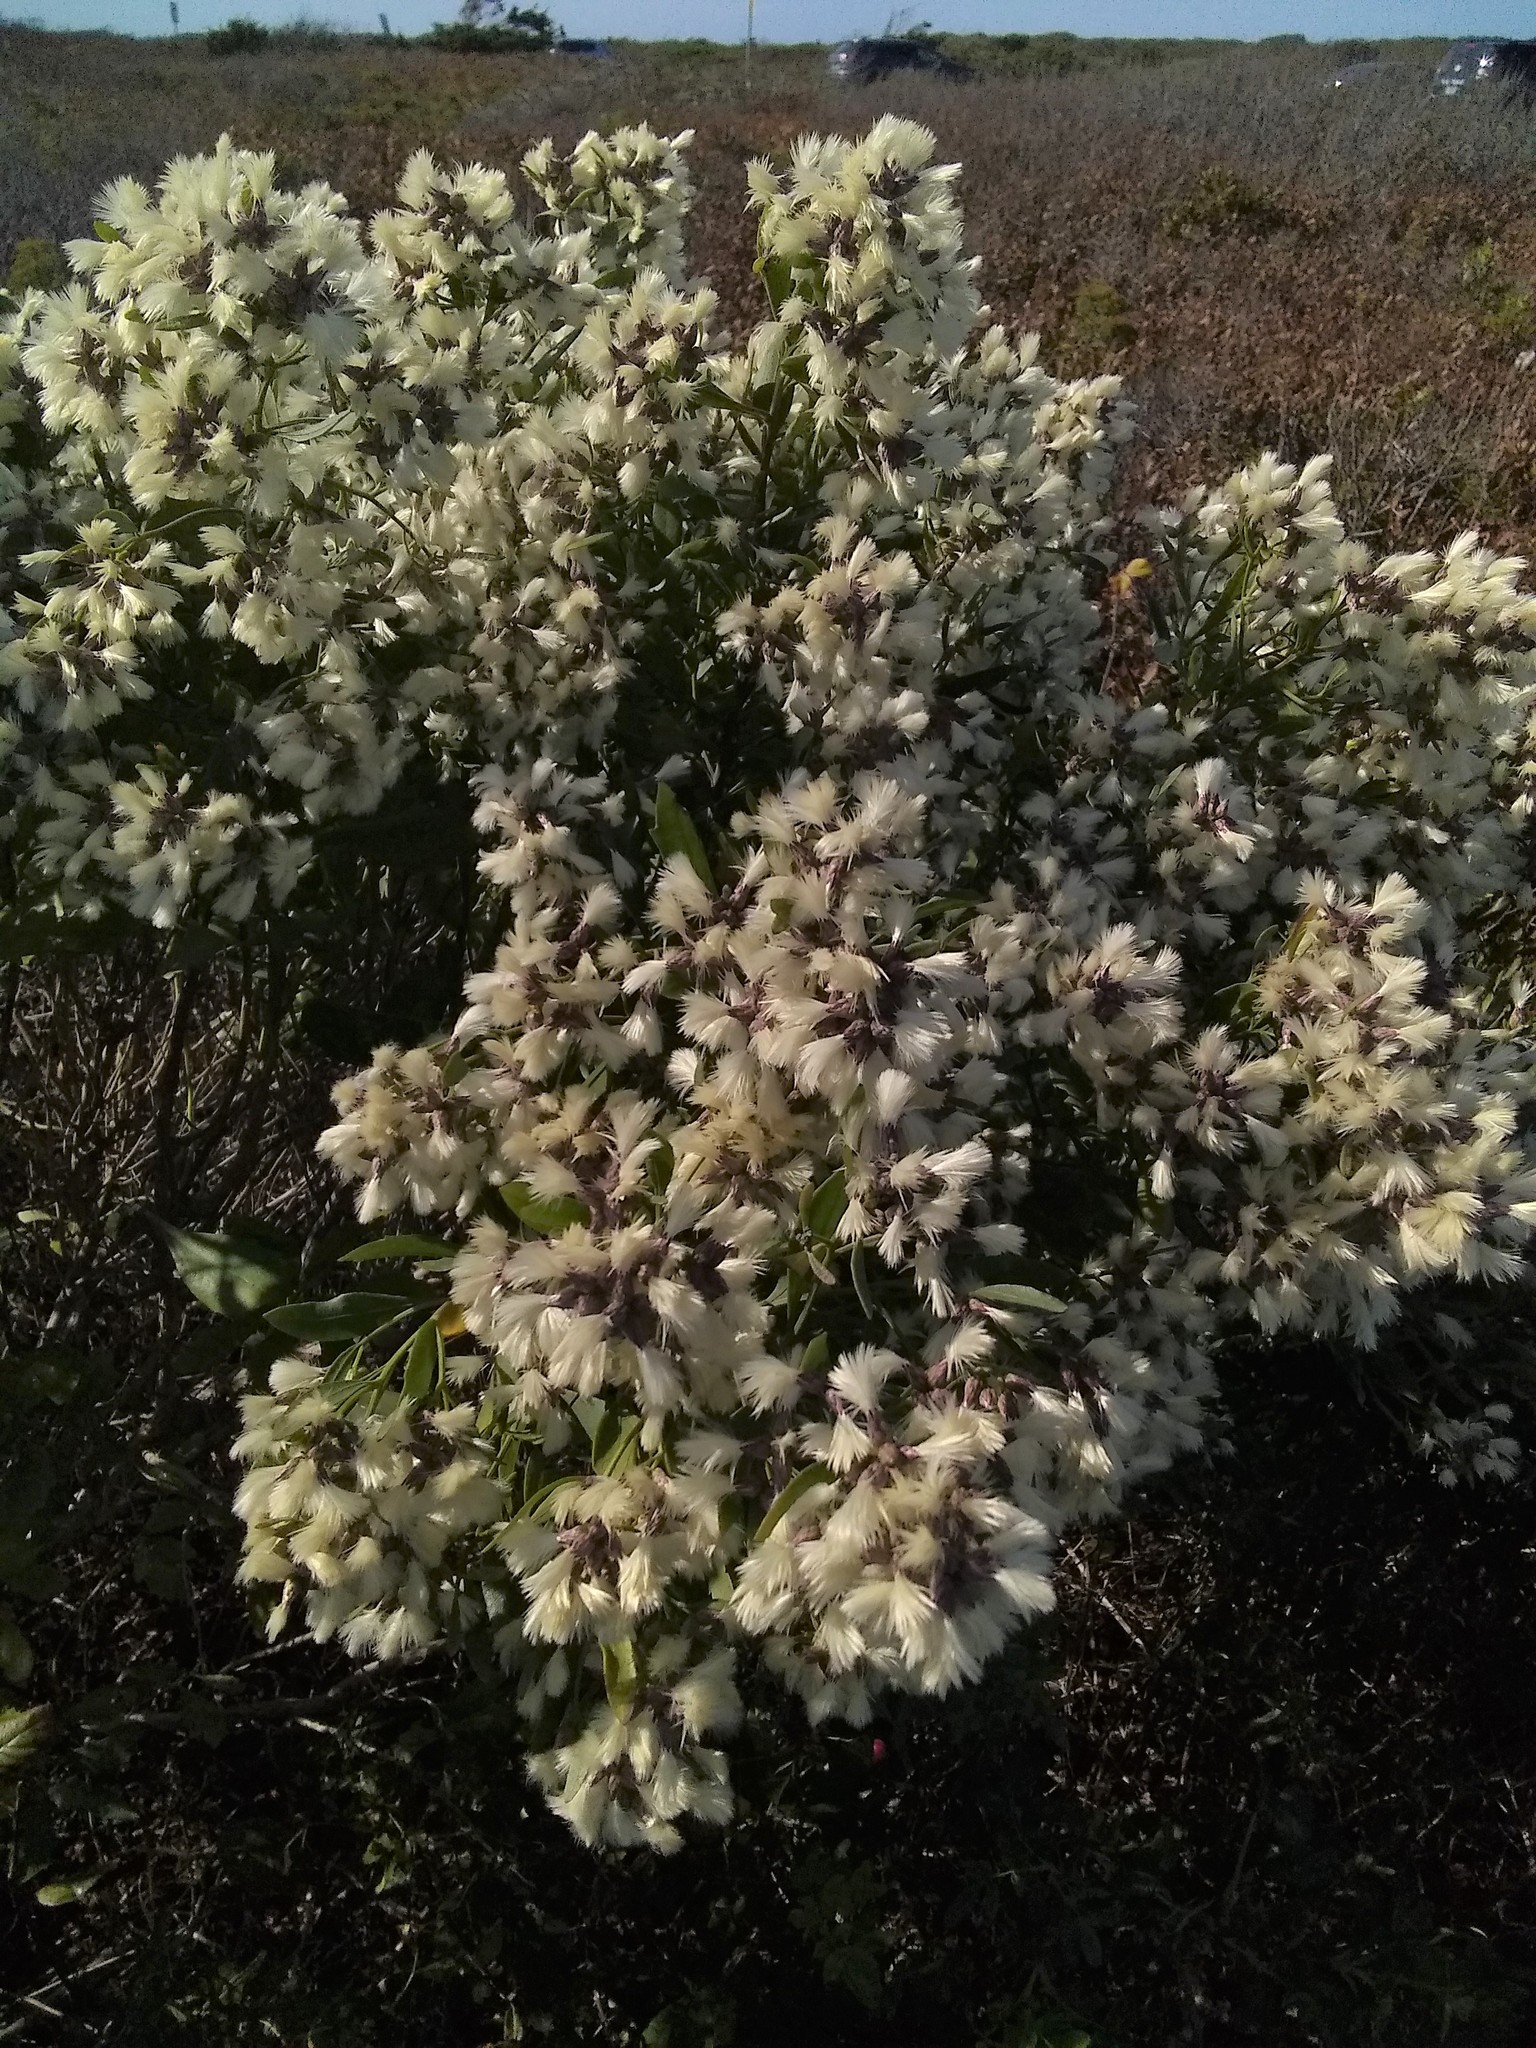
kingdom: Plantae
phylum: Tracheophyta
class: Magnoliopsida
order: Asterales
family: Asteraceae
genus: Baccharis
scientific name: Baccharis halimifolia
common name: Eastern baccharis
